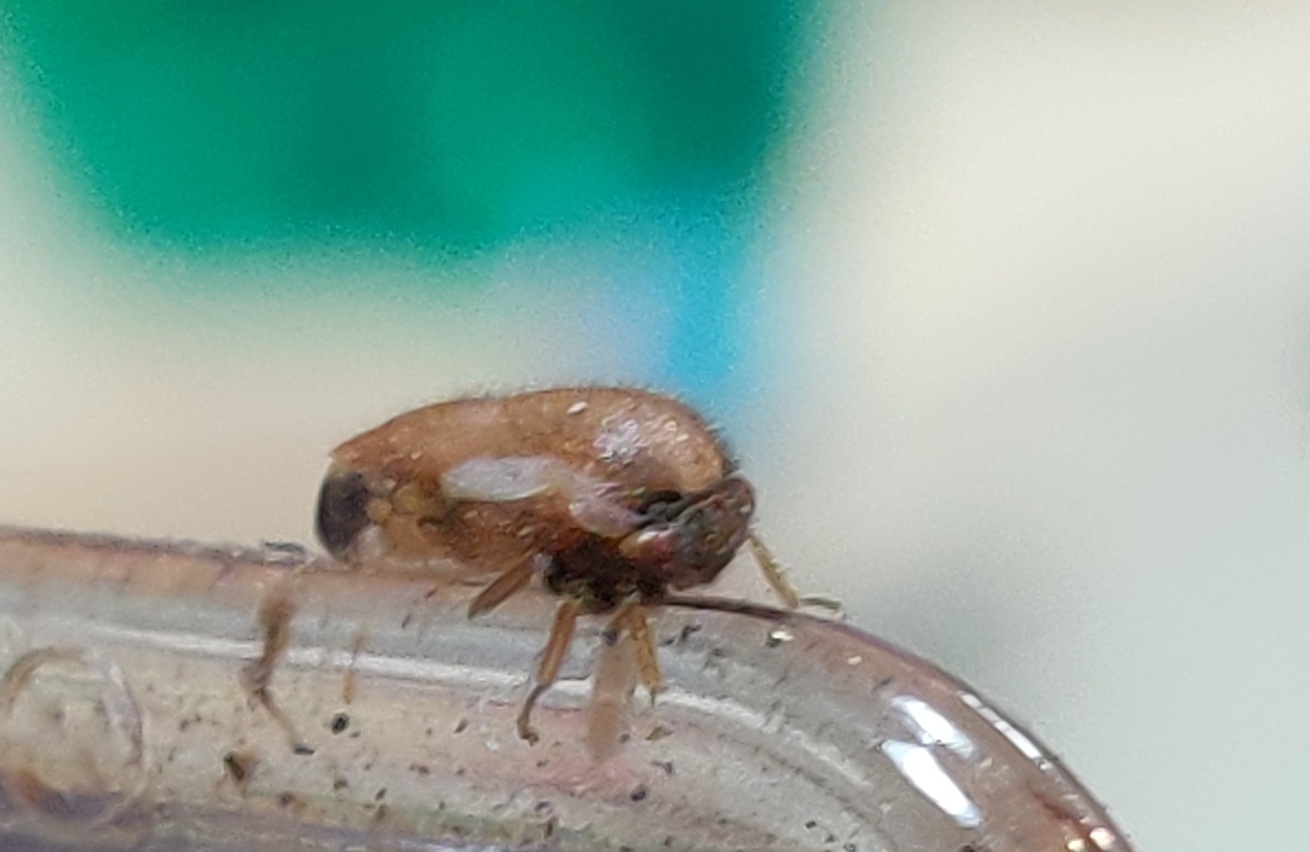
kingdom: Animalia
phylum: Arthropoda
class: Insecta
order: Hemiptera
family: Membracidae
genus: Ophiderma
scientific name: Ophiderma flavicephala
